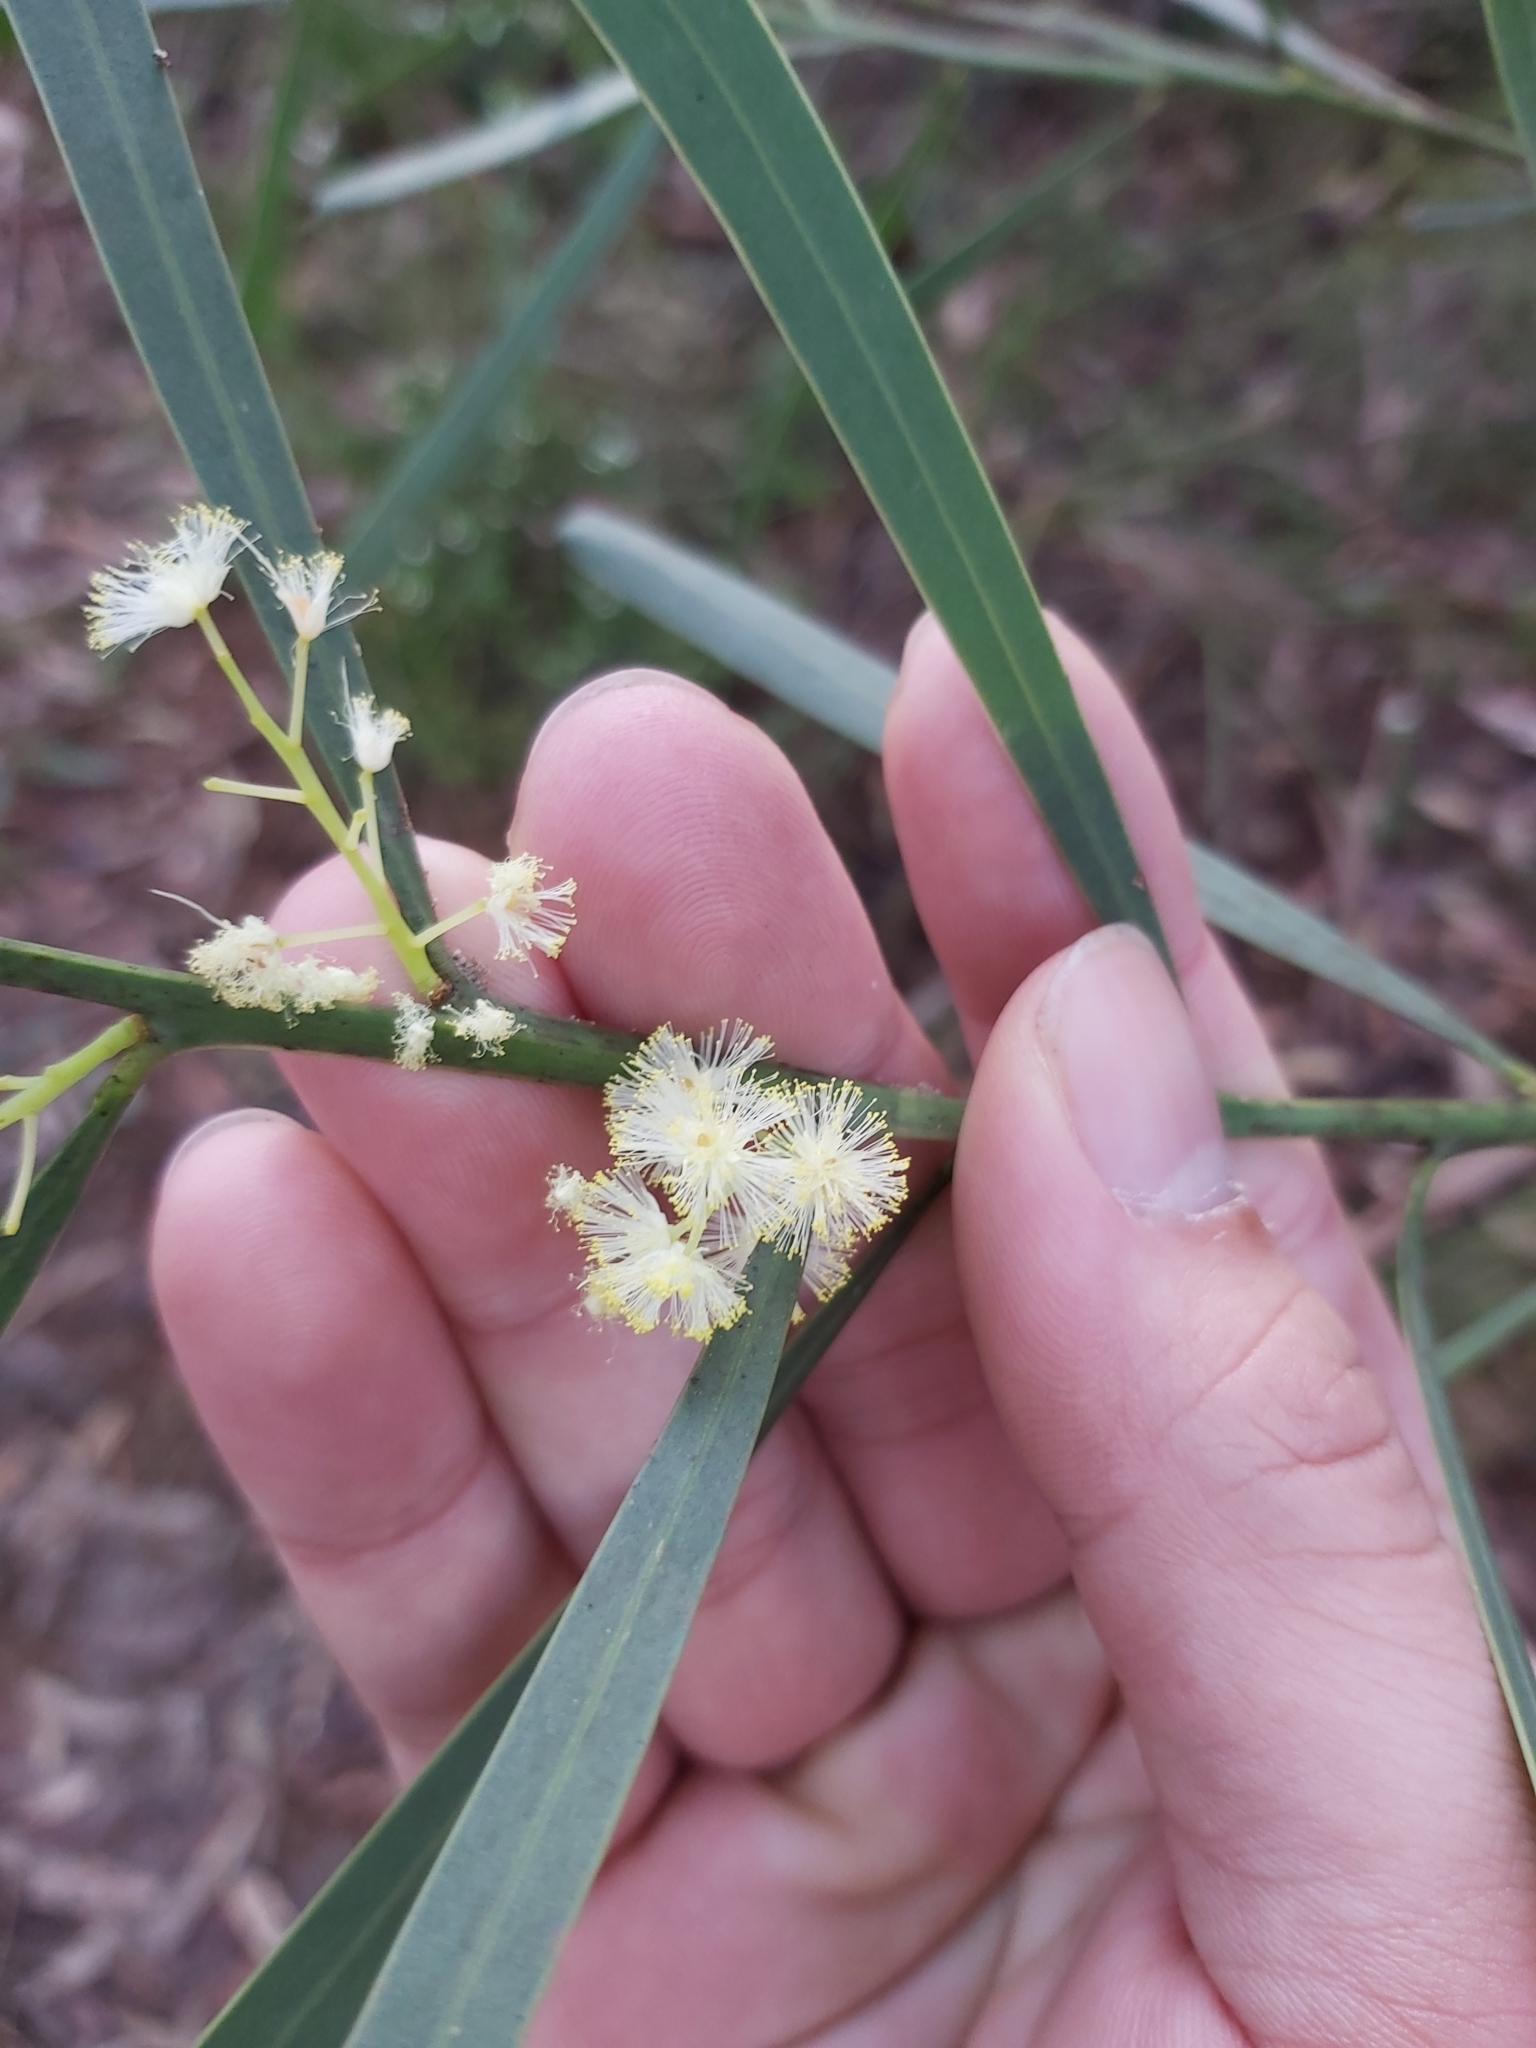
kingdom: Plantae
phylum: Tracheophyta
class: Magnoliopsida
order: Fabales
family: Fabaceae
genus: Acacia
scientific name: Acacia suaveolens
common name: Sweet acacia
